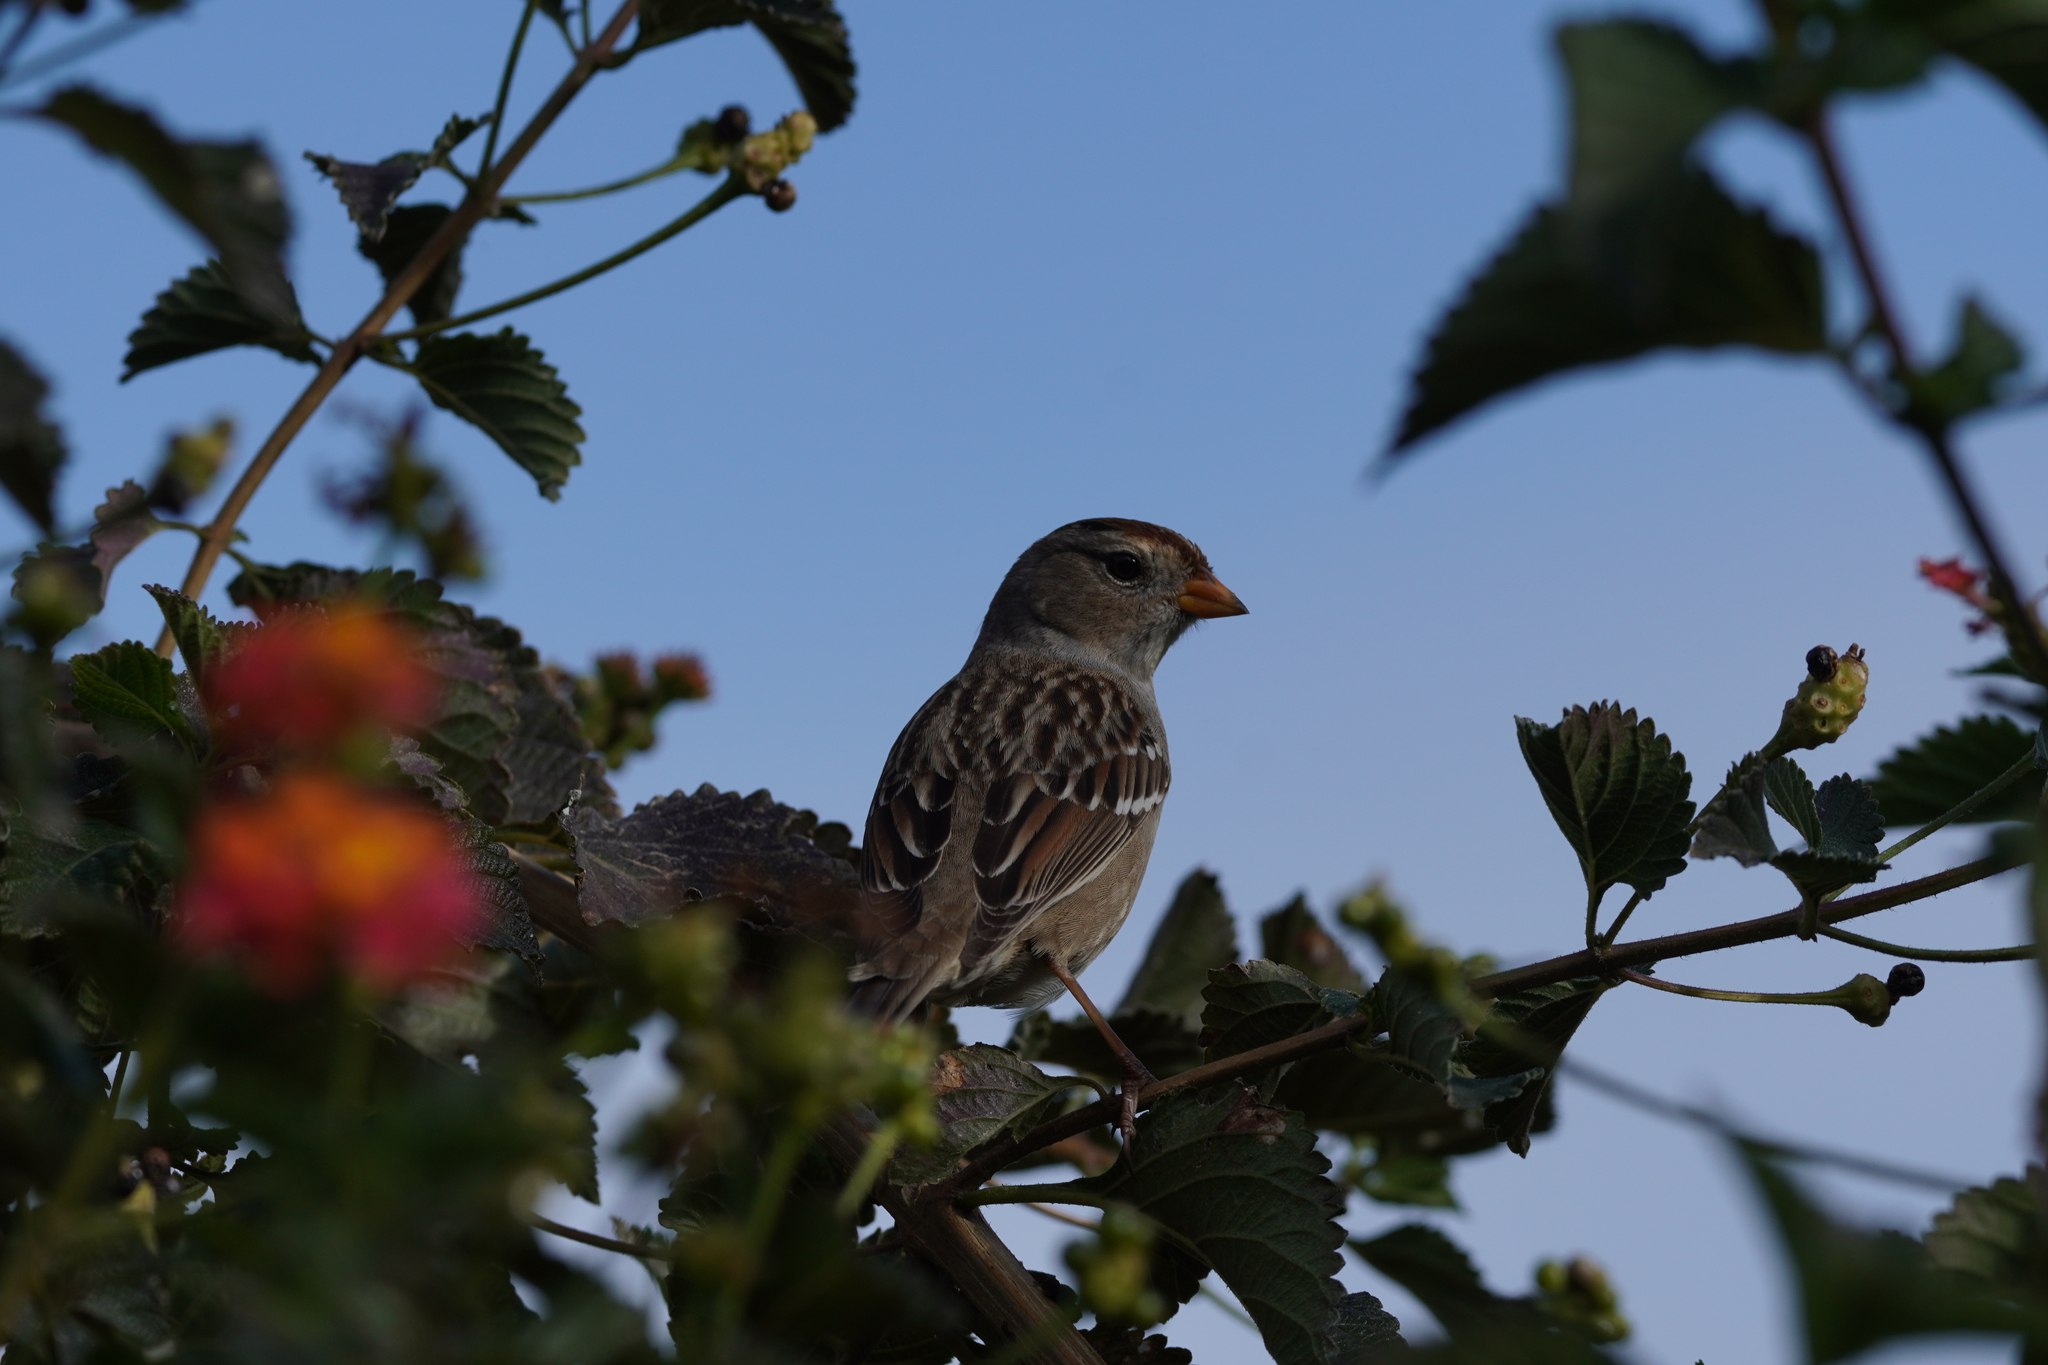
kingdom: Animalia
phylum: Chordata
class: Aves
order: Passeriformes
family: Passerellidae
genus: Zonotrichia
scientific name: Zonotrichia leucophrys
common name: White-crowned sparrow
